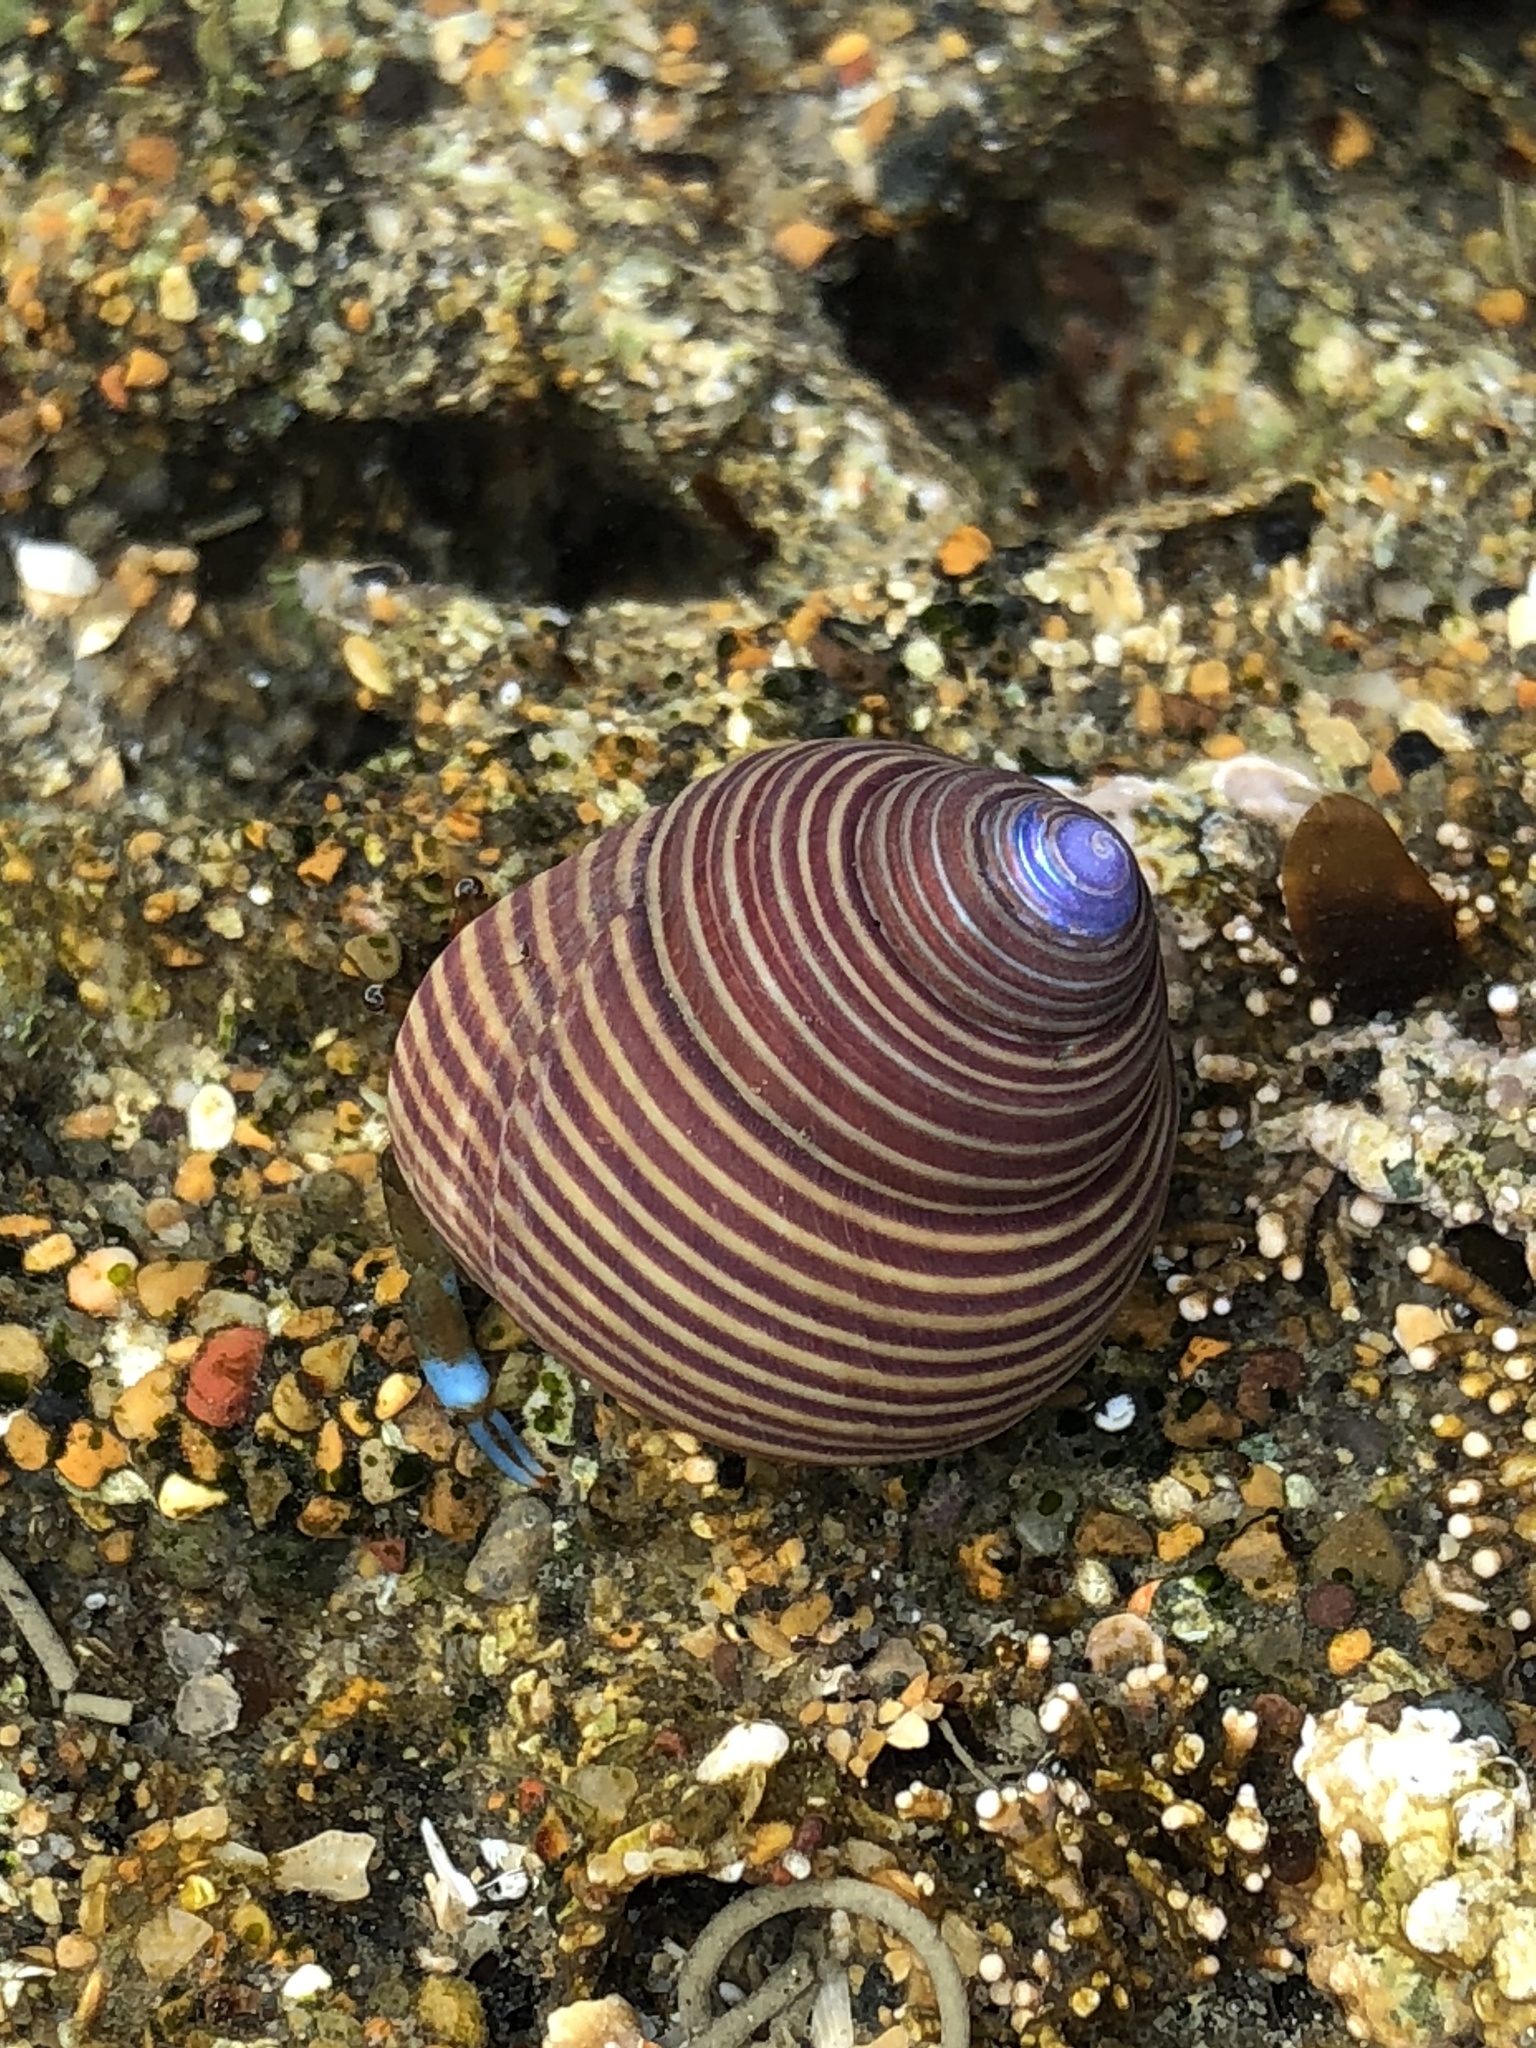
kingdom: Animalia
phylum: Mollusca
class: Gastropoda
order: Trochida
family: Calliostomatidae
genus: Calliostoma
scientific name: Calliostoma ligatum
